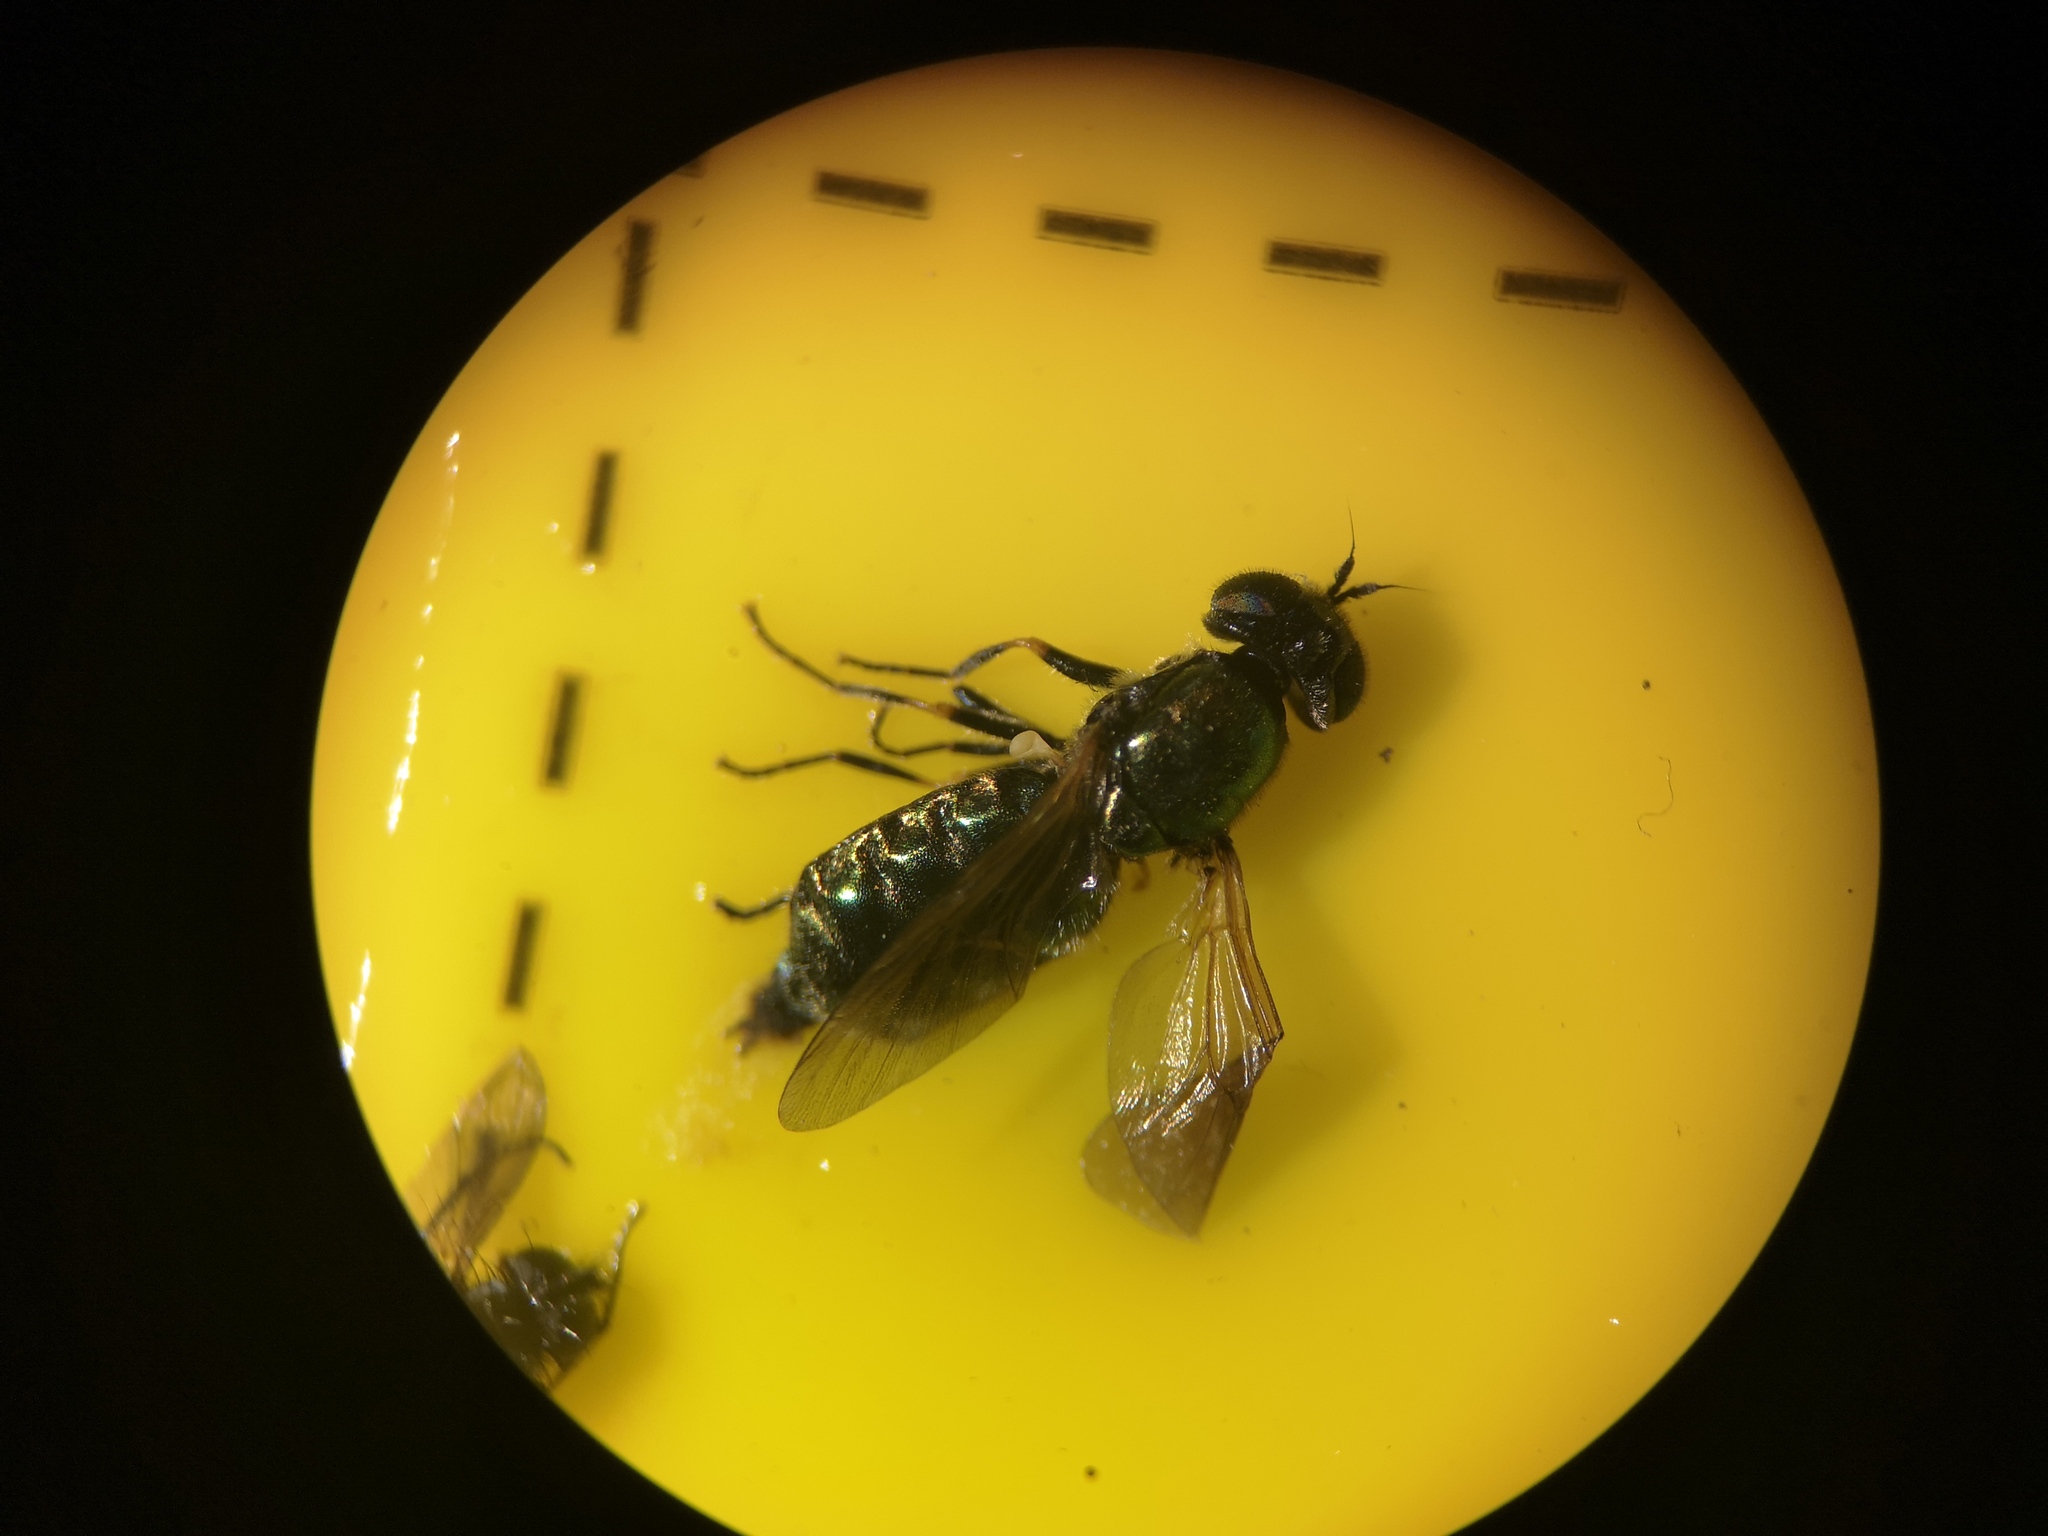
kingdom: Animalia
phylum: Arthropoda
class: Insecta
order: Diptera
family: Stratiomyidae
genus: Chloromyia
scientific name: Chloromyia formosa
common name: Soldier fly
